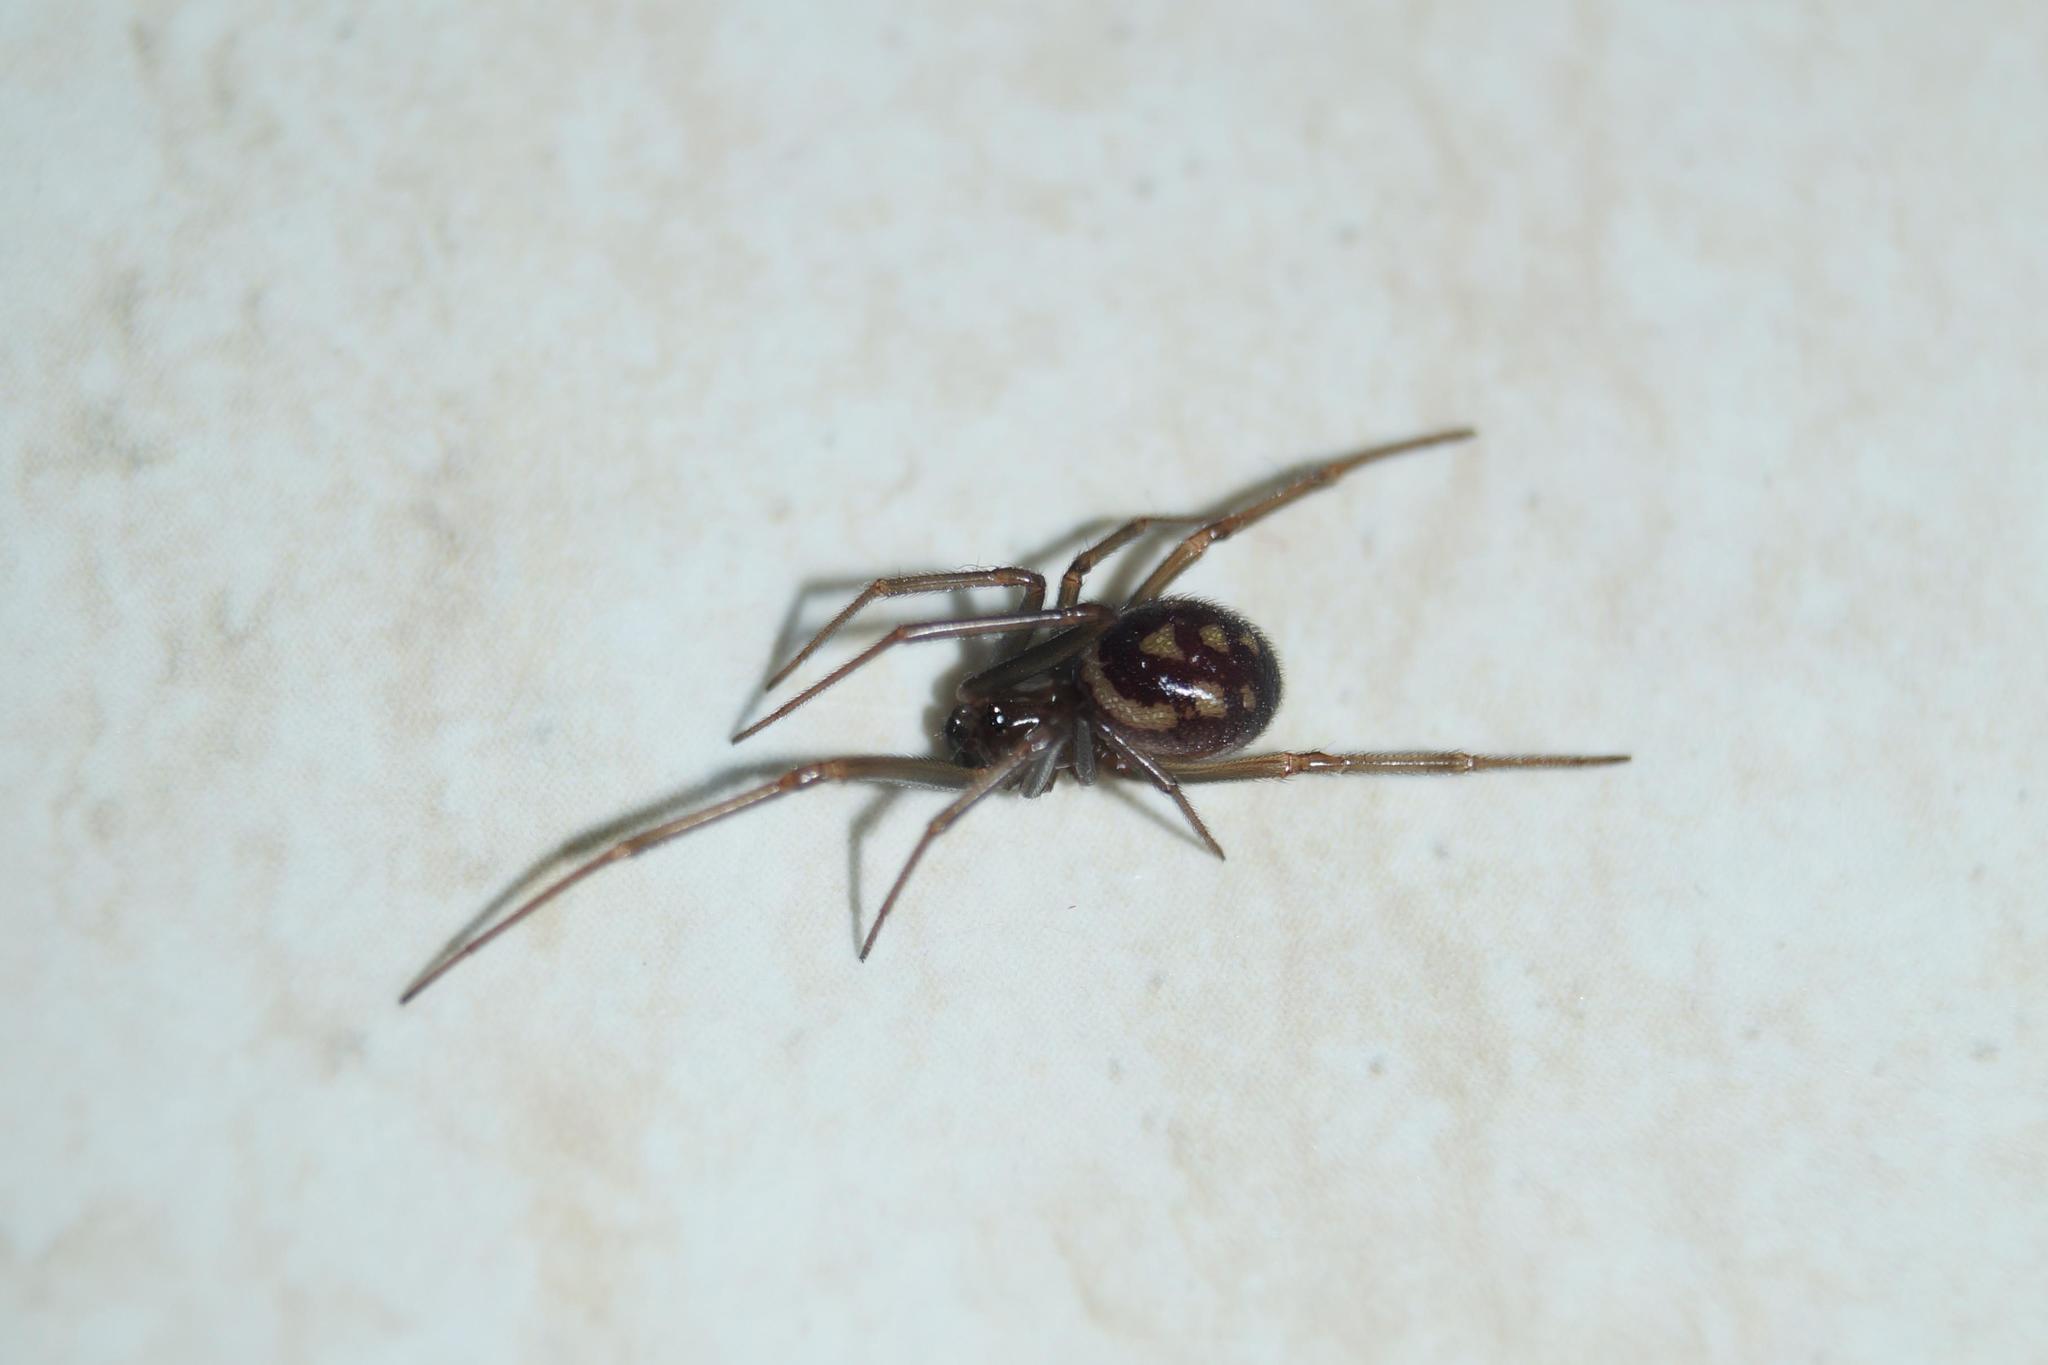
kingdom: Animalia
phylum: Arthropoda
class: Arachnida
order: Araneae
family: Theridiidae
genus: Steatoda
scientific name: Steatoda grossa
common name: False black widow
